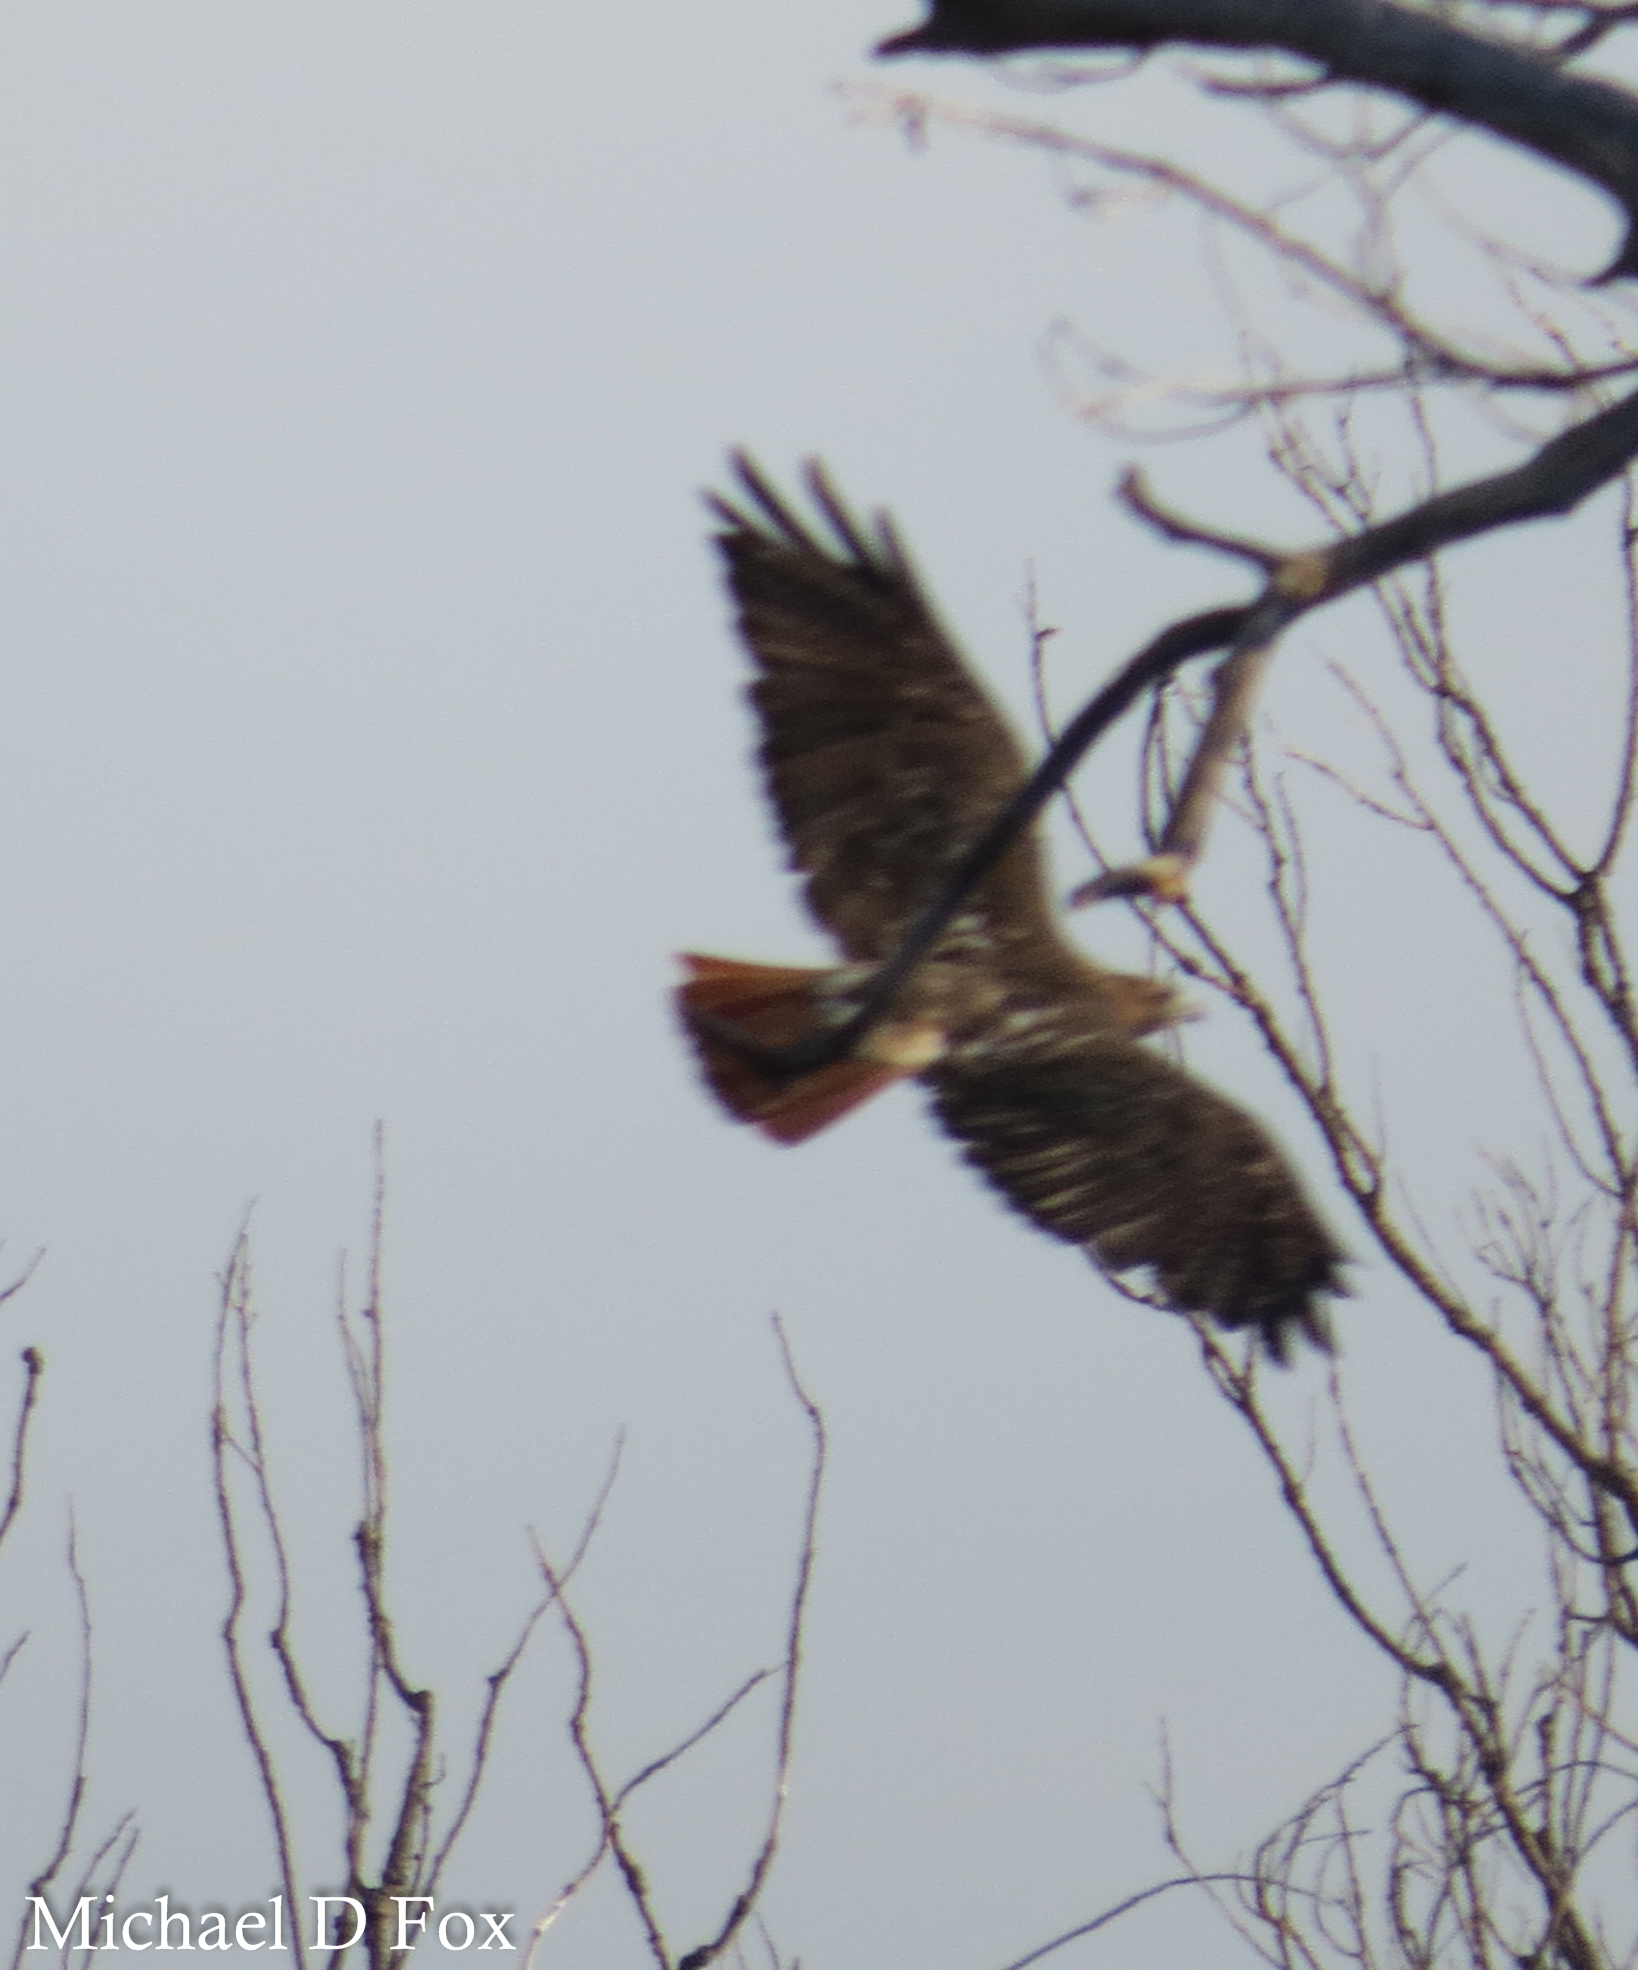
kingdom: Animalia
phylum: Chordata
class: Aves
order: Accipitriformes
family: Accipitridae
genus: Buteo
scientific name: Buteo jamaicensis
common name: Red-tailed hawk
